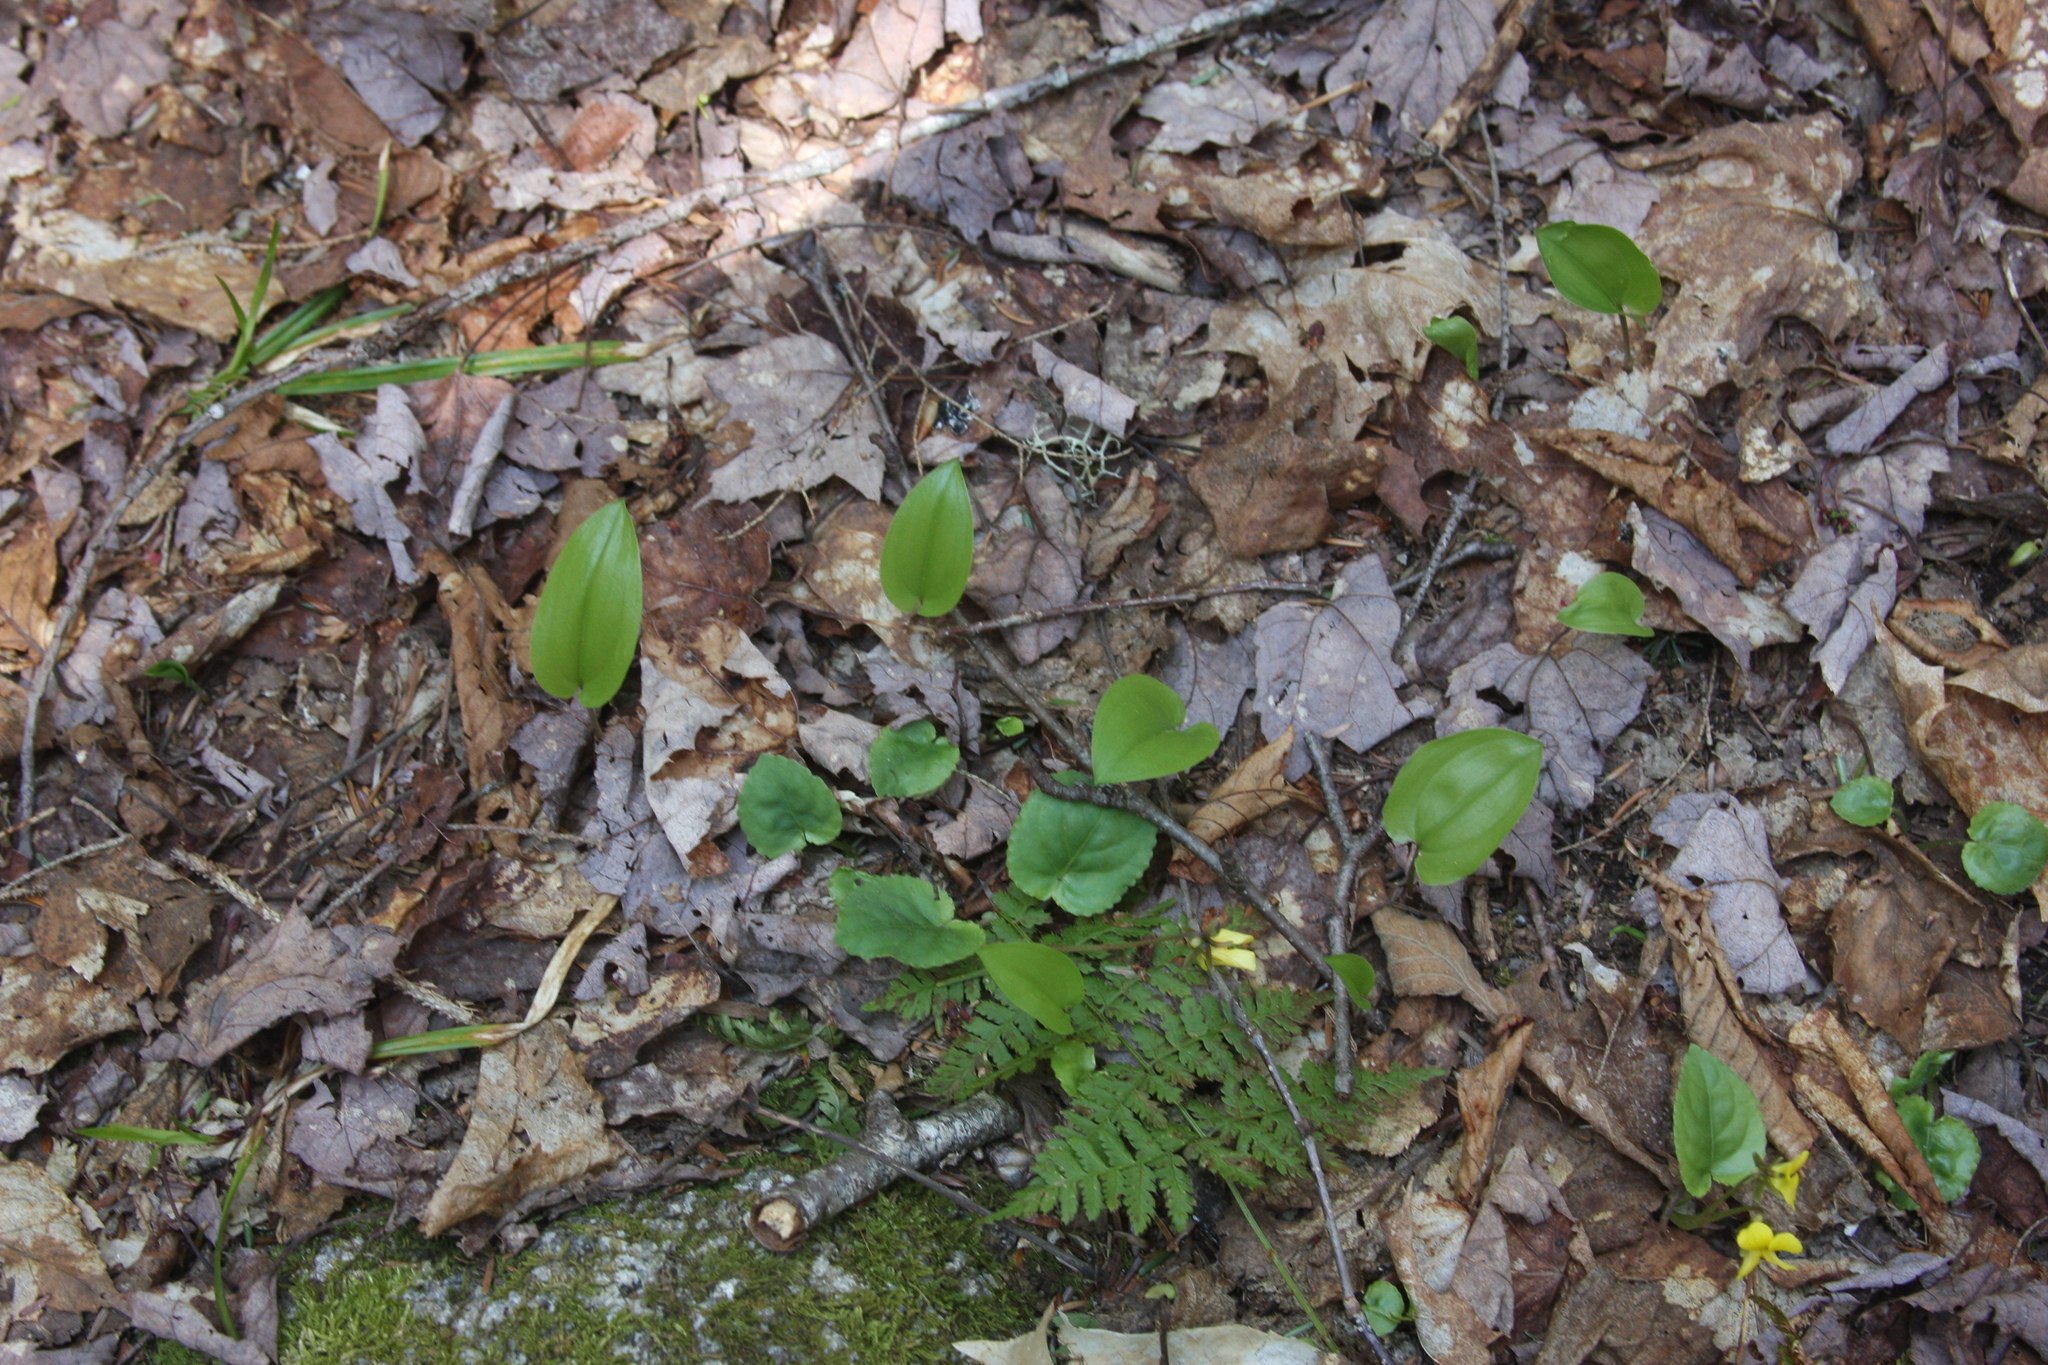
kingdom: Plantae
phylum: Tracheophyta
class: Liliopsida
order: Asparagales
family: Asparagaceae
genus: Maianthemum
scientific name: Maianthemum canadense
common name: False lily-of-the-valley
